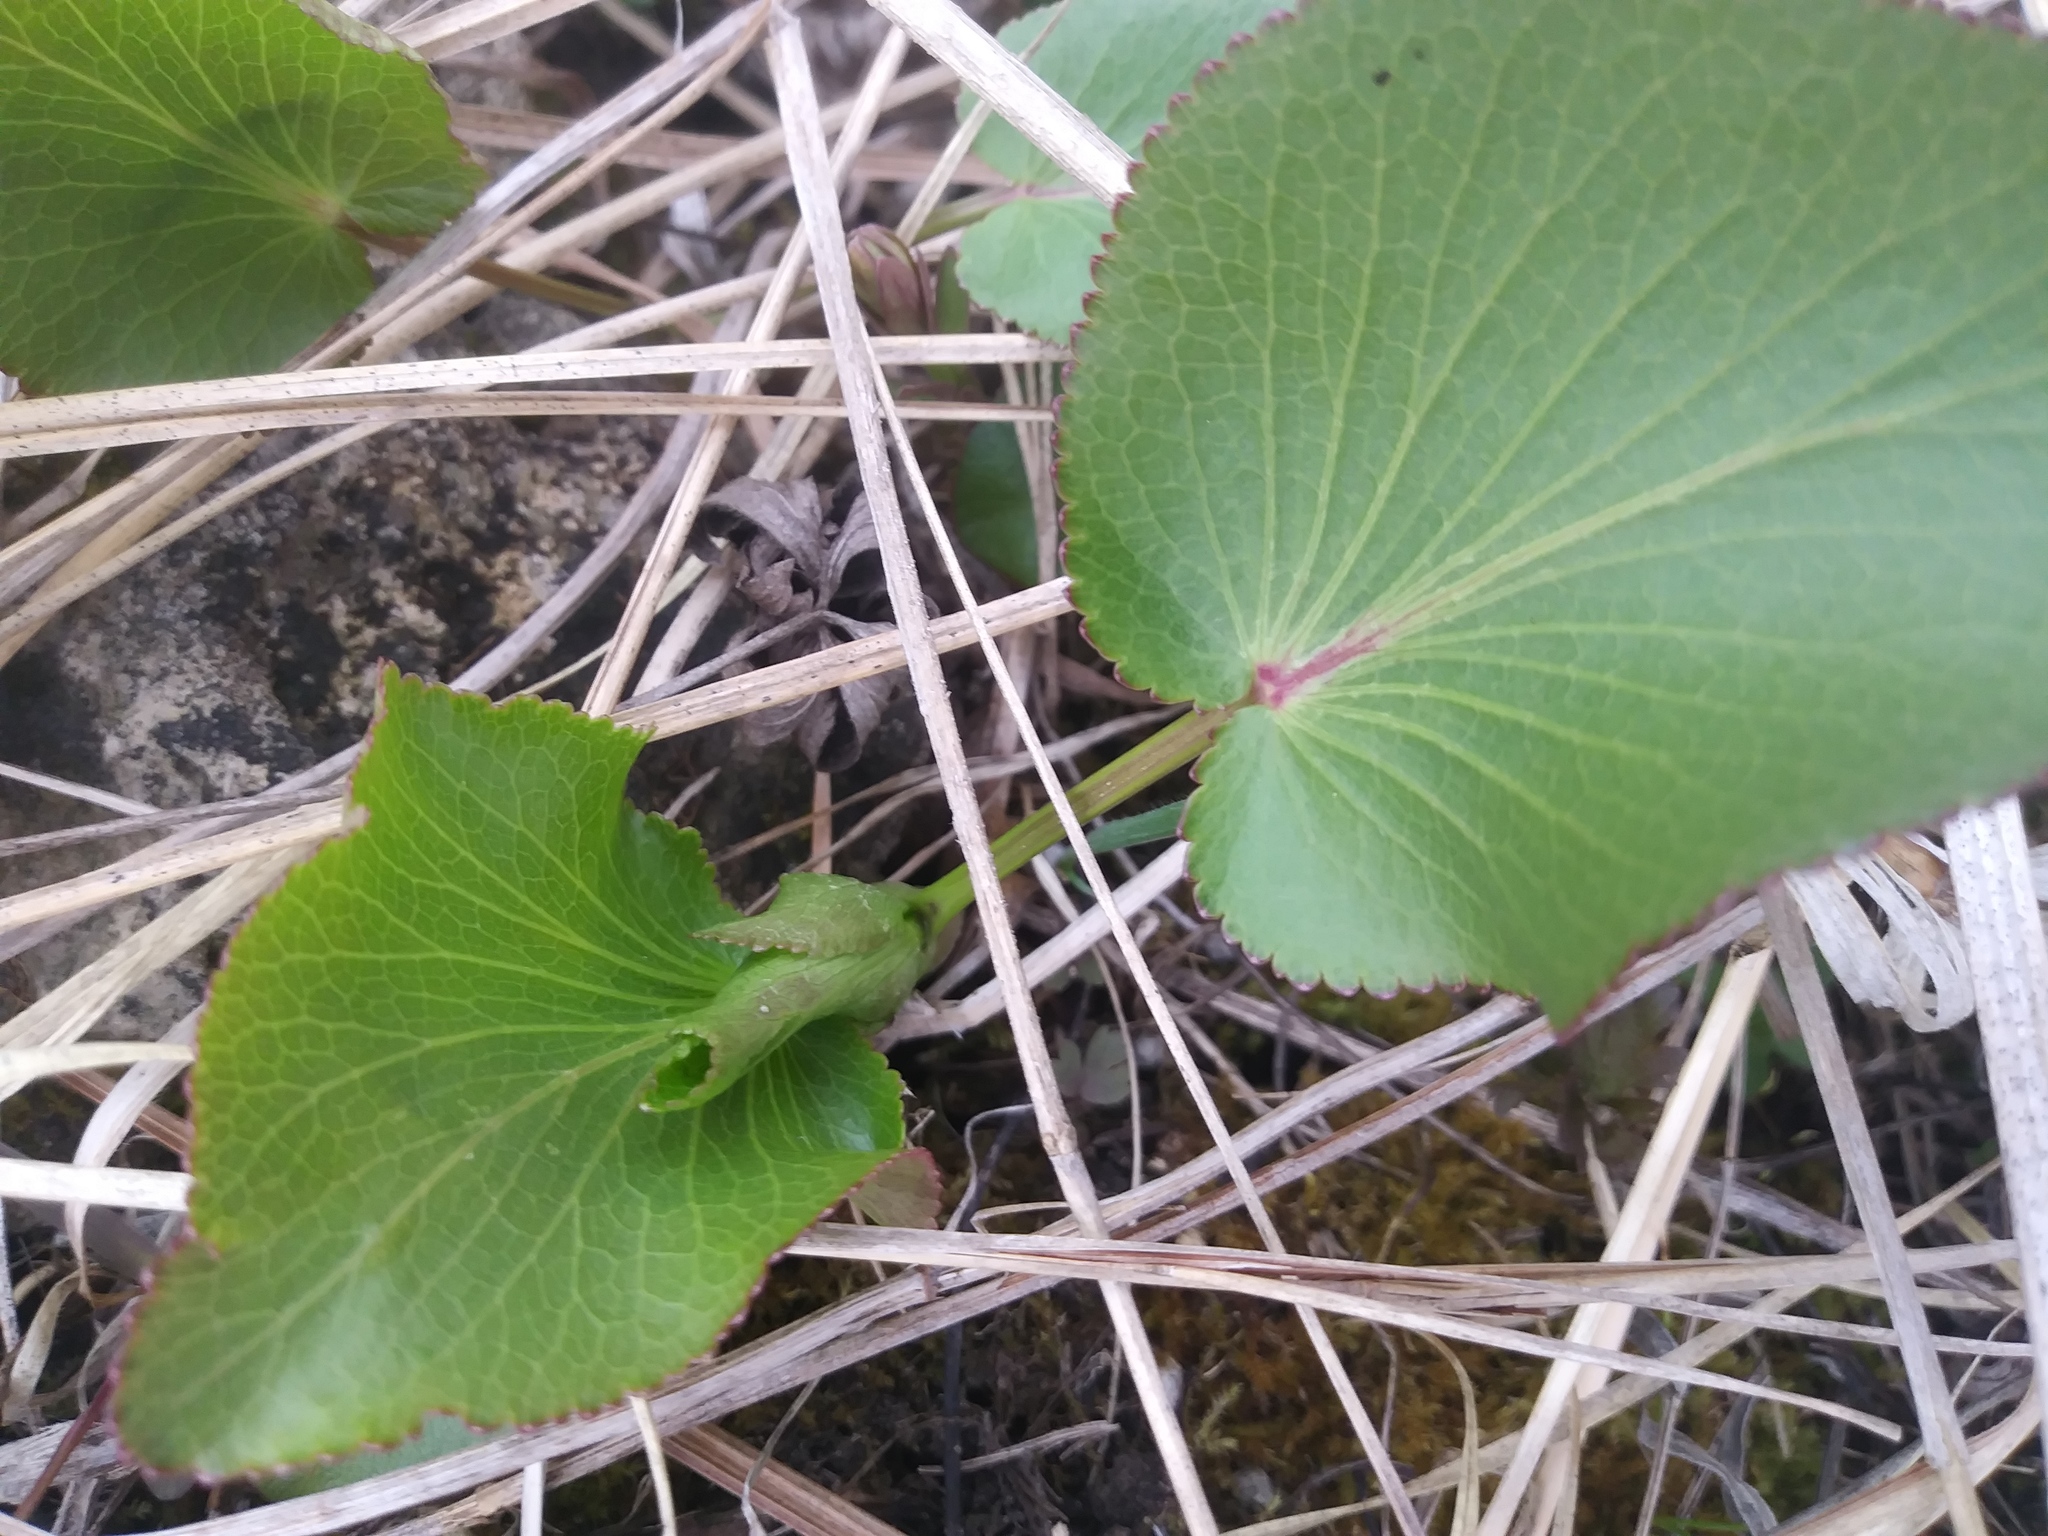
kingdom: Plantae
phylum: Tracheophyta
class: Magnoliopsida
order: Apiales
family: Apiaceae
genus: Zizia
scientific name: Zizia aptera
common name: Heart-leaved alexanders
